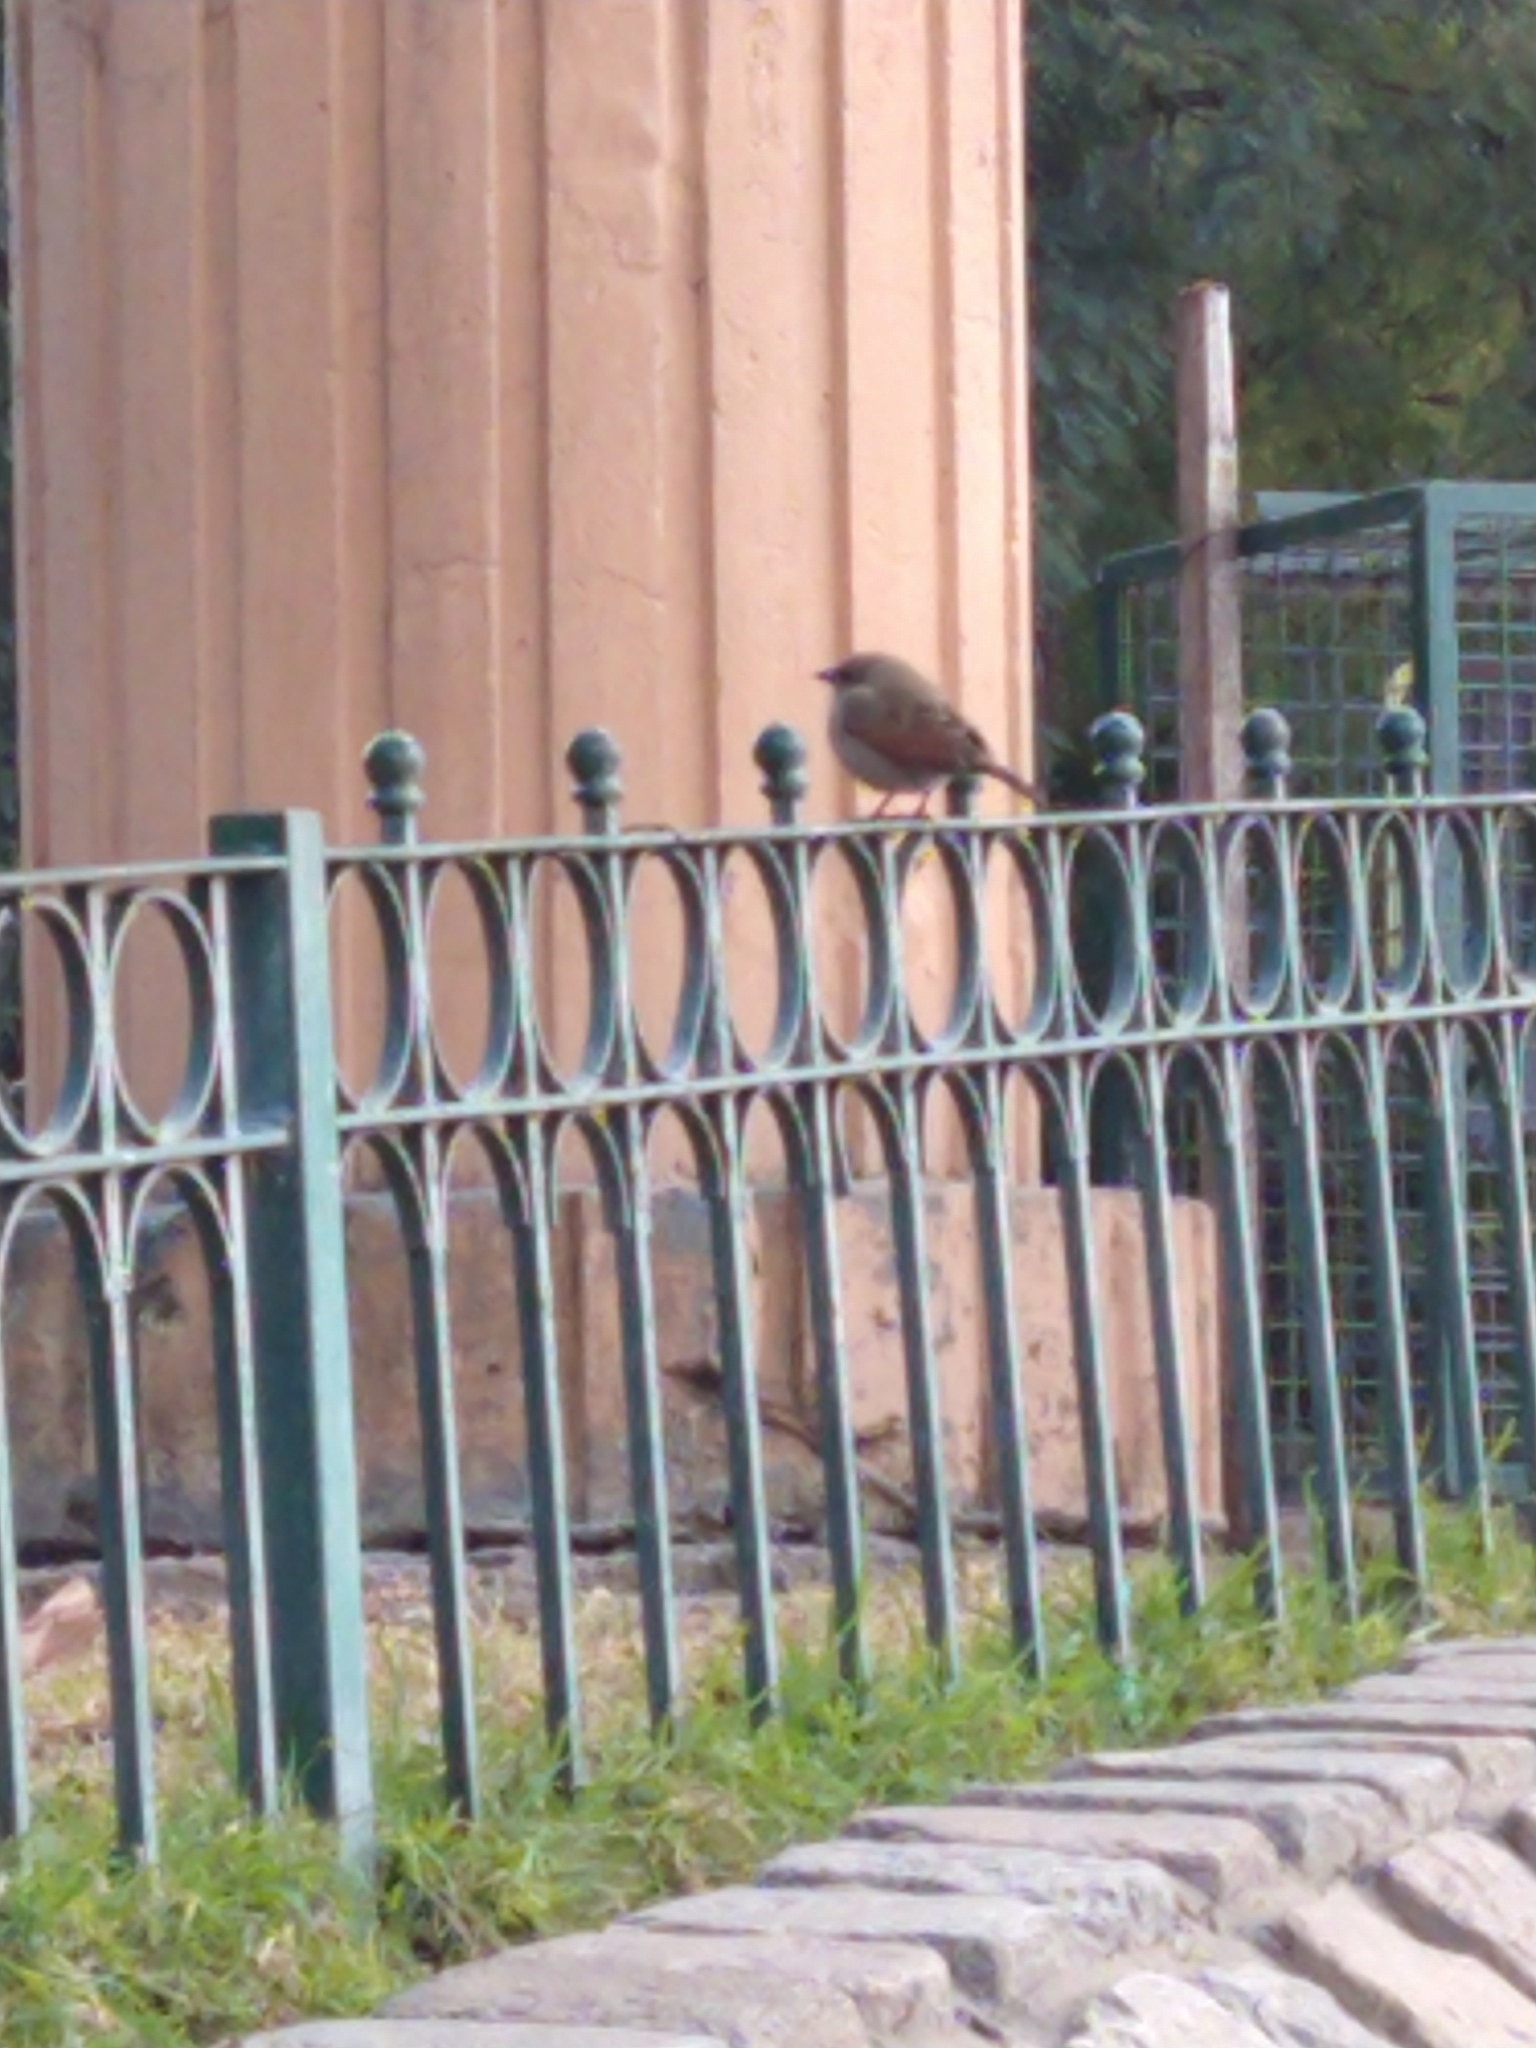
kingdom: Animalia
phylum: Chordata
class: Aves
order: Passeriformes
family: Icteridae
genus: Agelaioides
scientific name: Agelaioides badius
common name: Baywing
